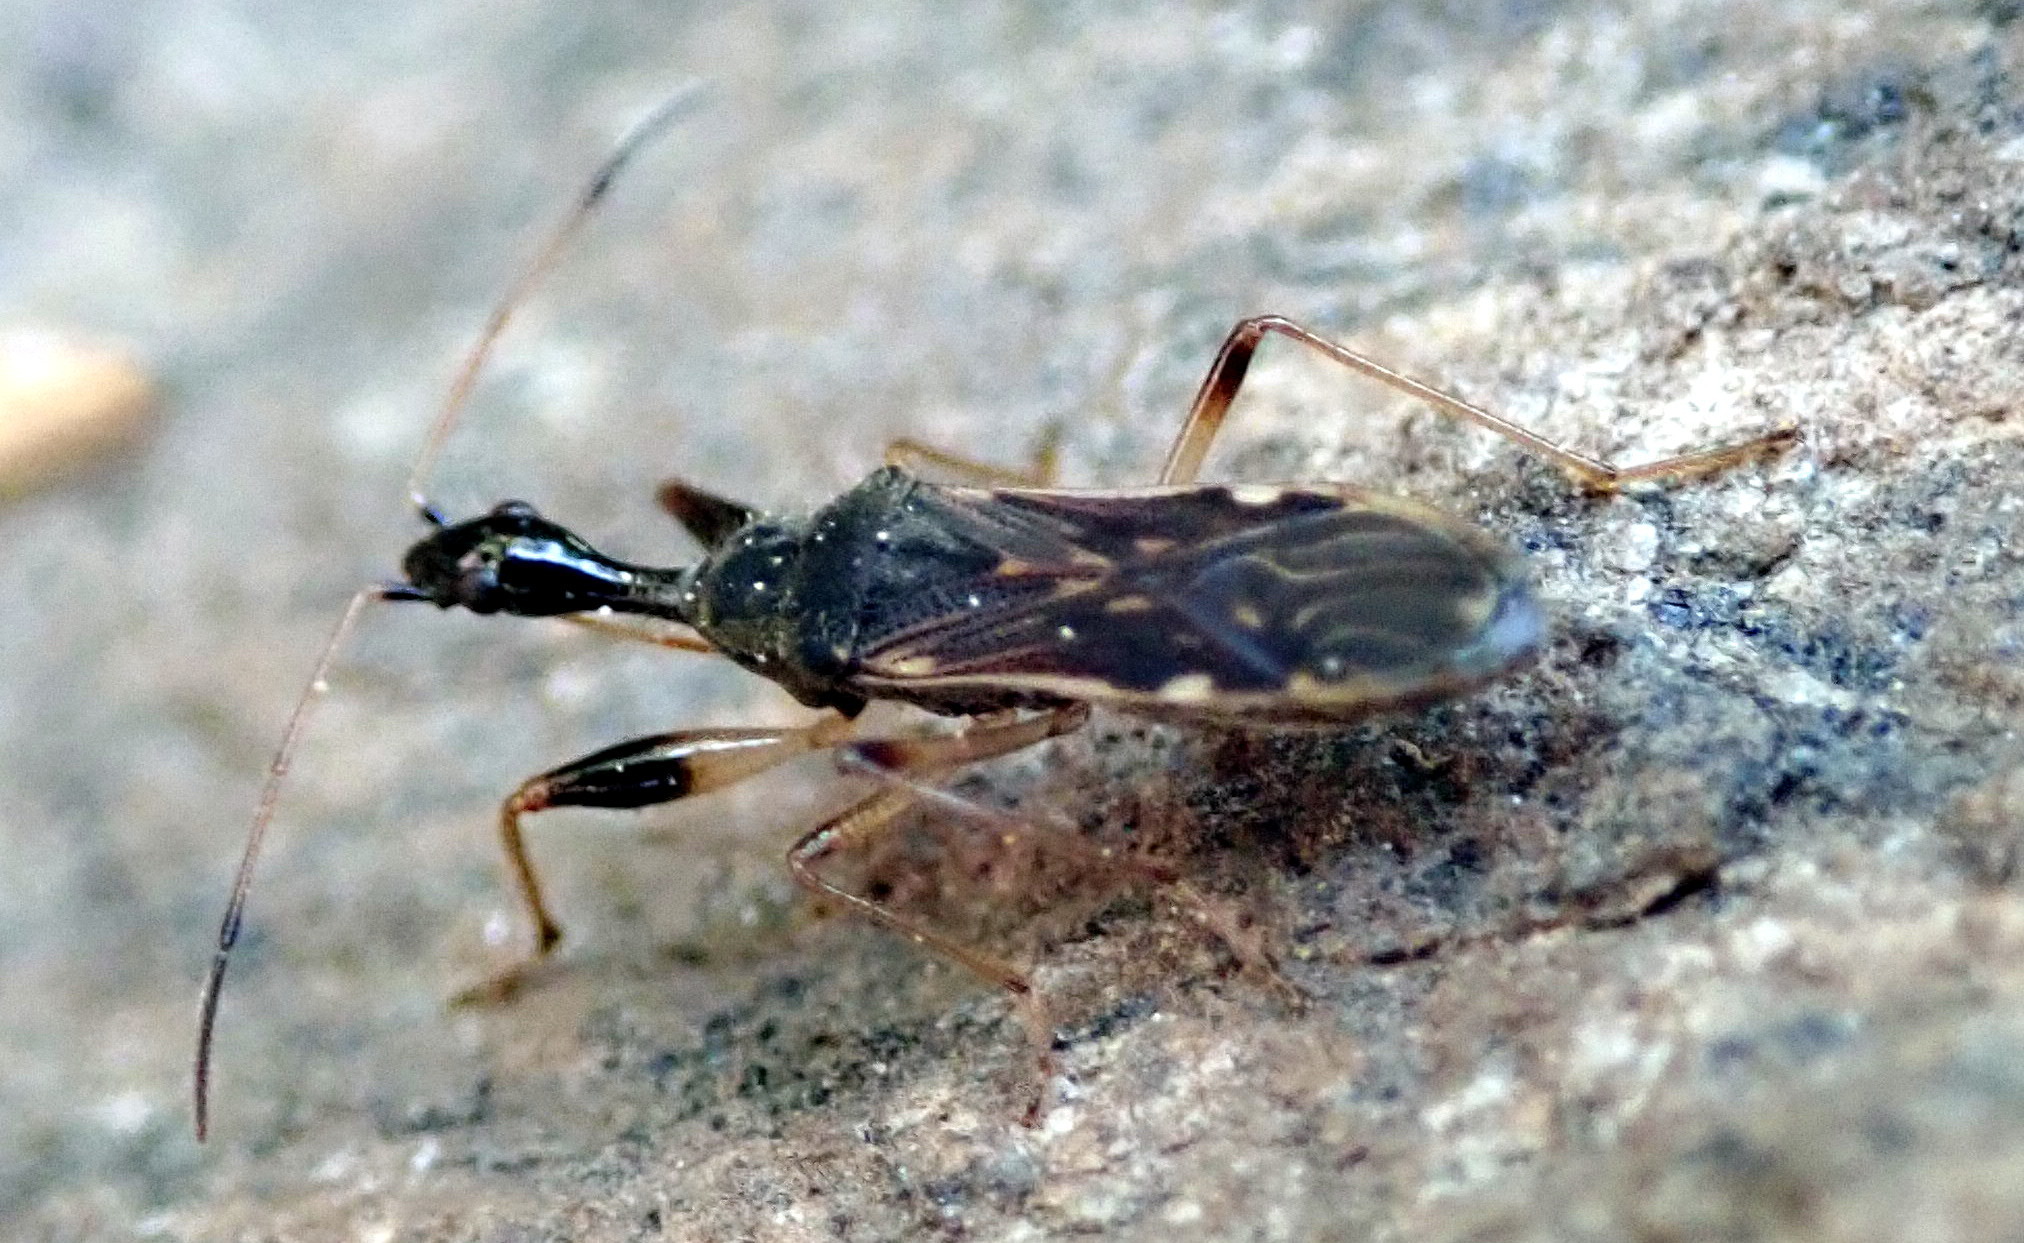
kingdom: Animalia
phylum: Arthropoda
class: Insecta
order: Hemiptera
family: Rhyparochromidae
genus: Myodocha
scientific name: Myodocha serripes
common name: Long-necked seed bug
